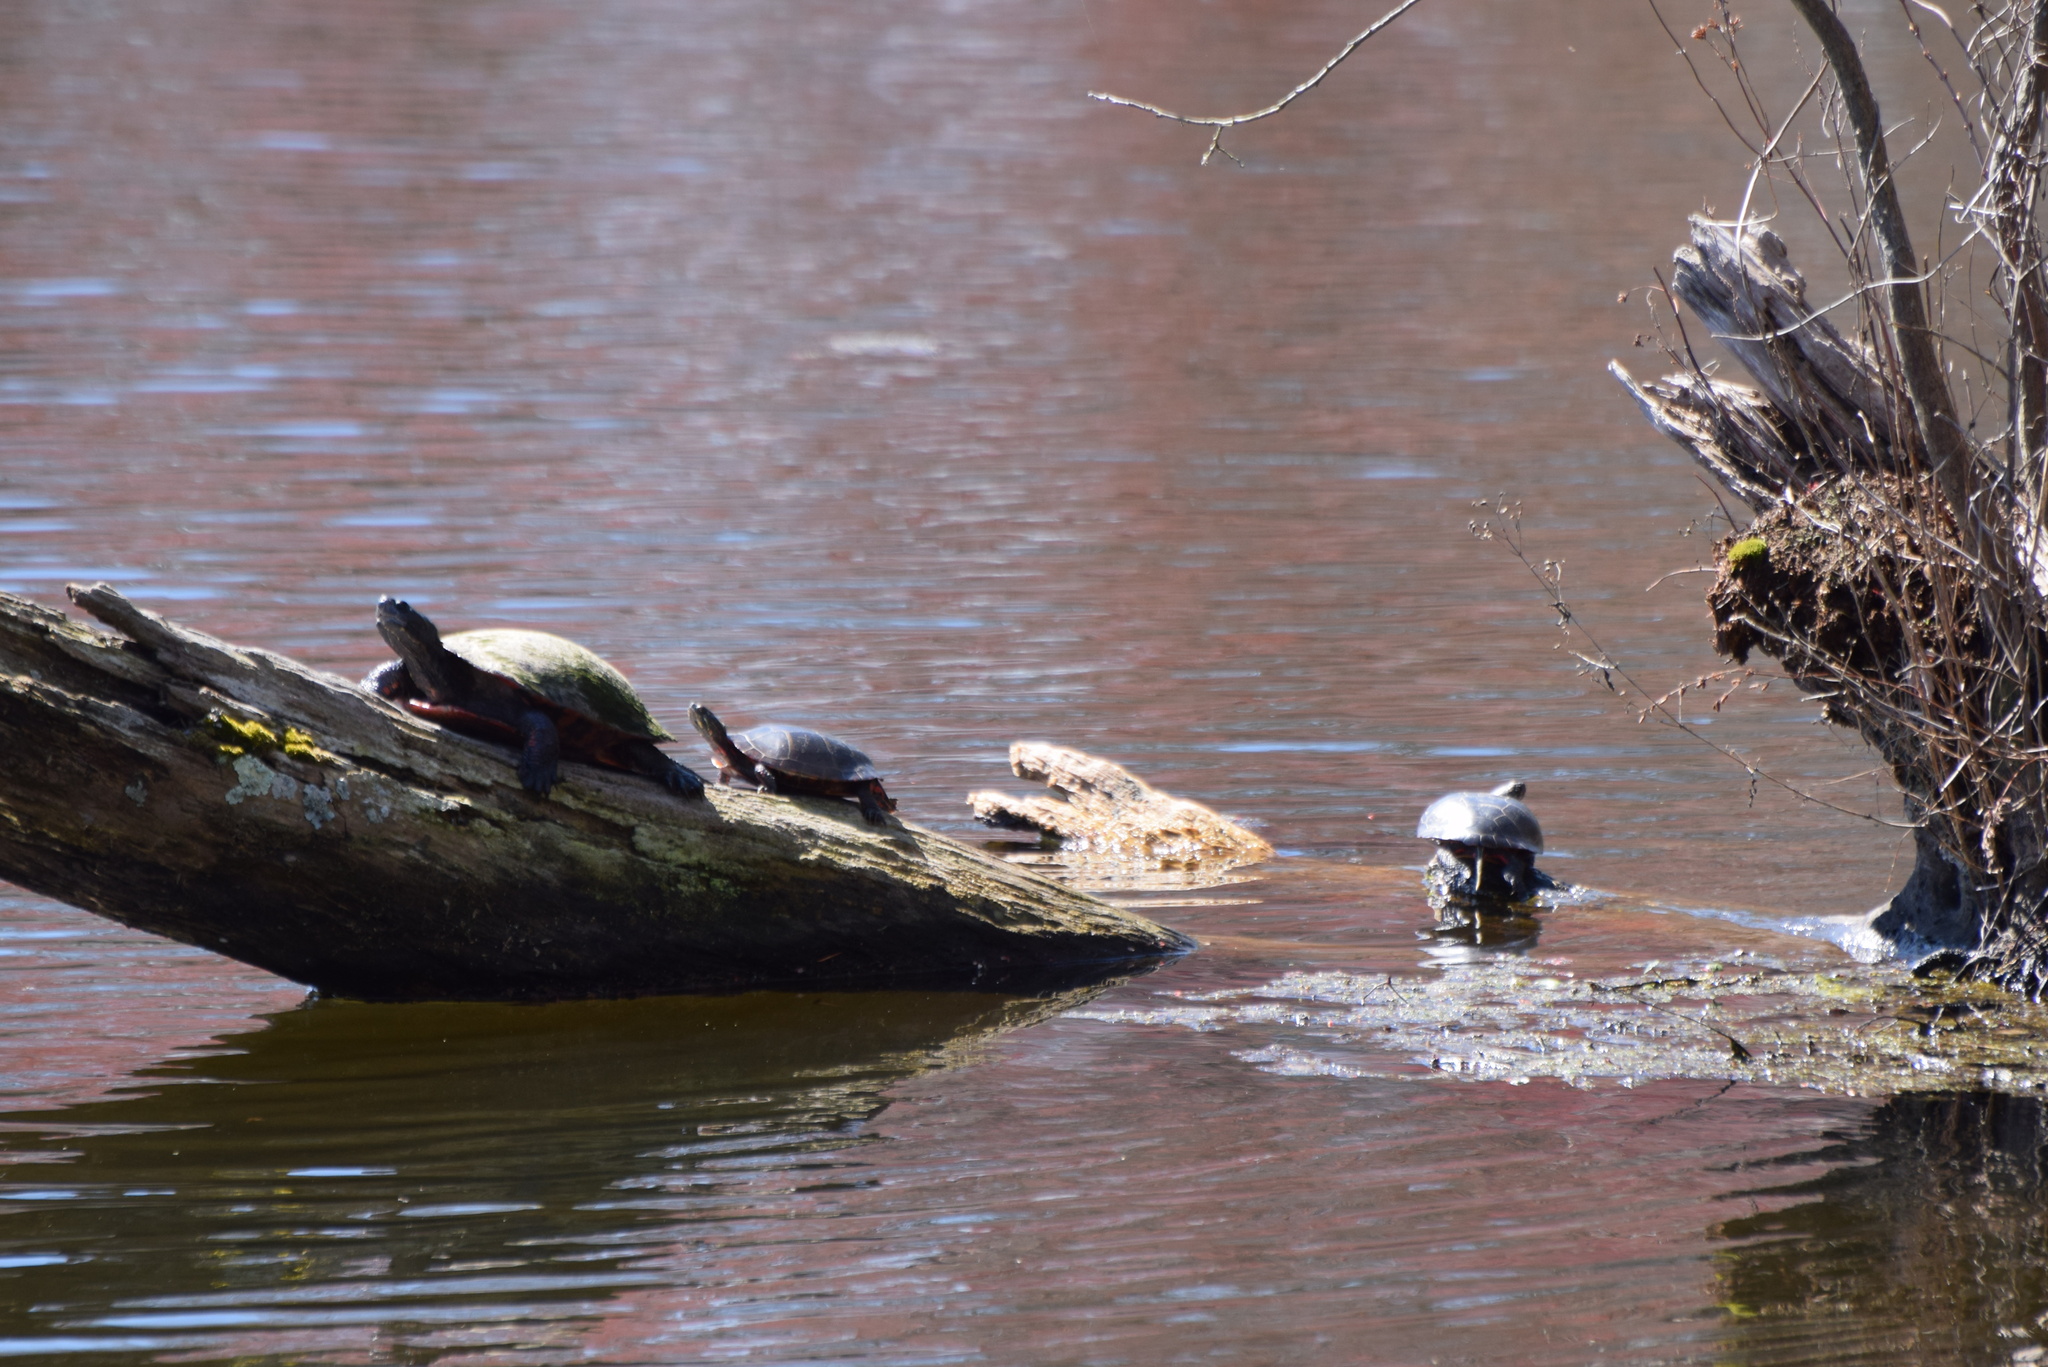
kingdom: Animalia
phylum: Chordata
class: Testudines
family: Emydidae
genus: Pseudemys
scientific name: Pseudemys rubriventris
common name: American red-bellied turtle
